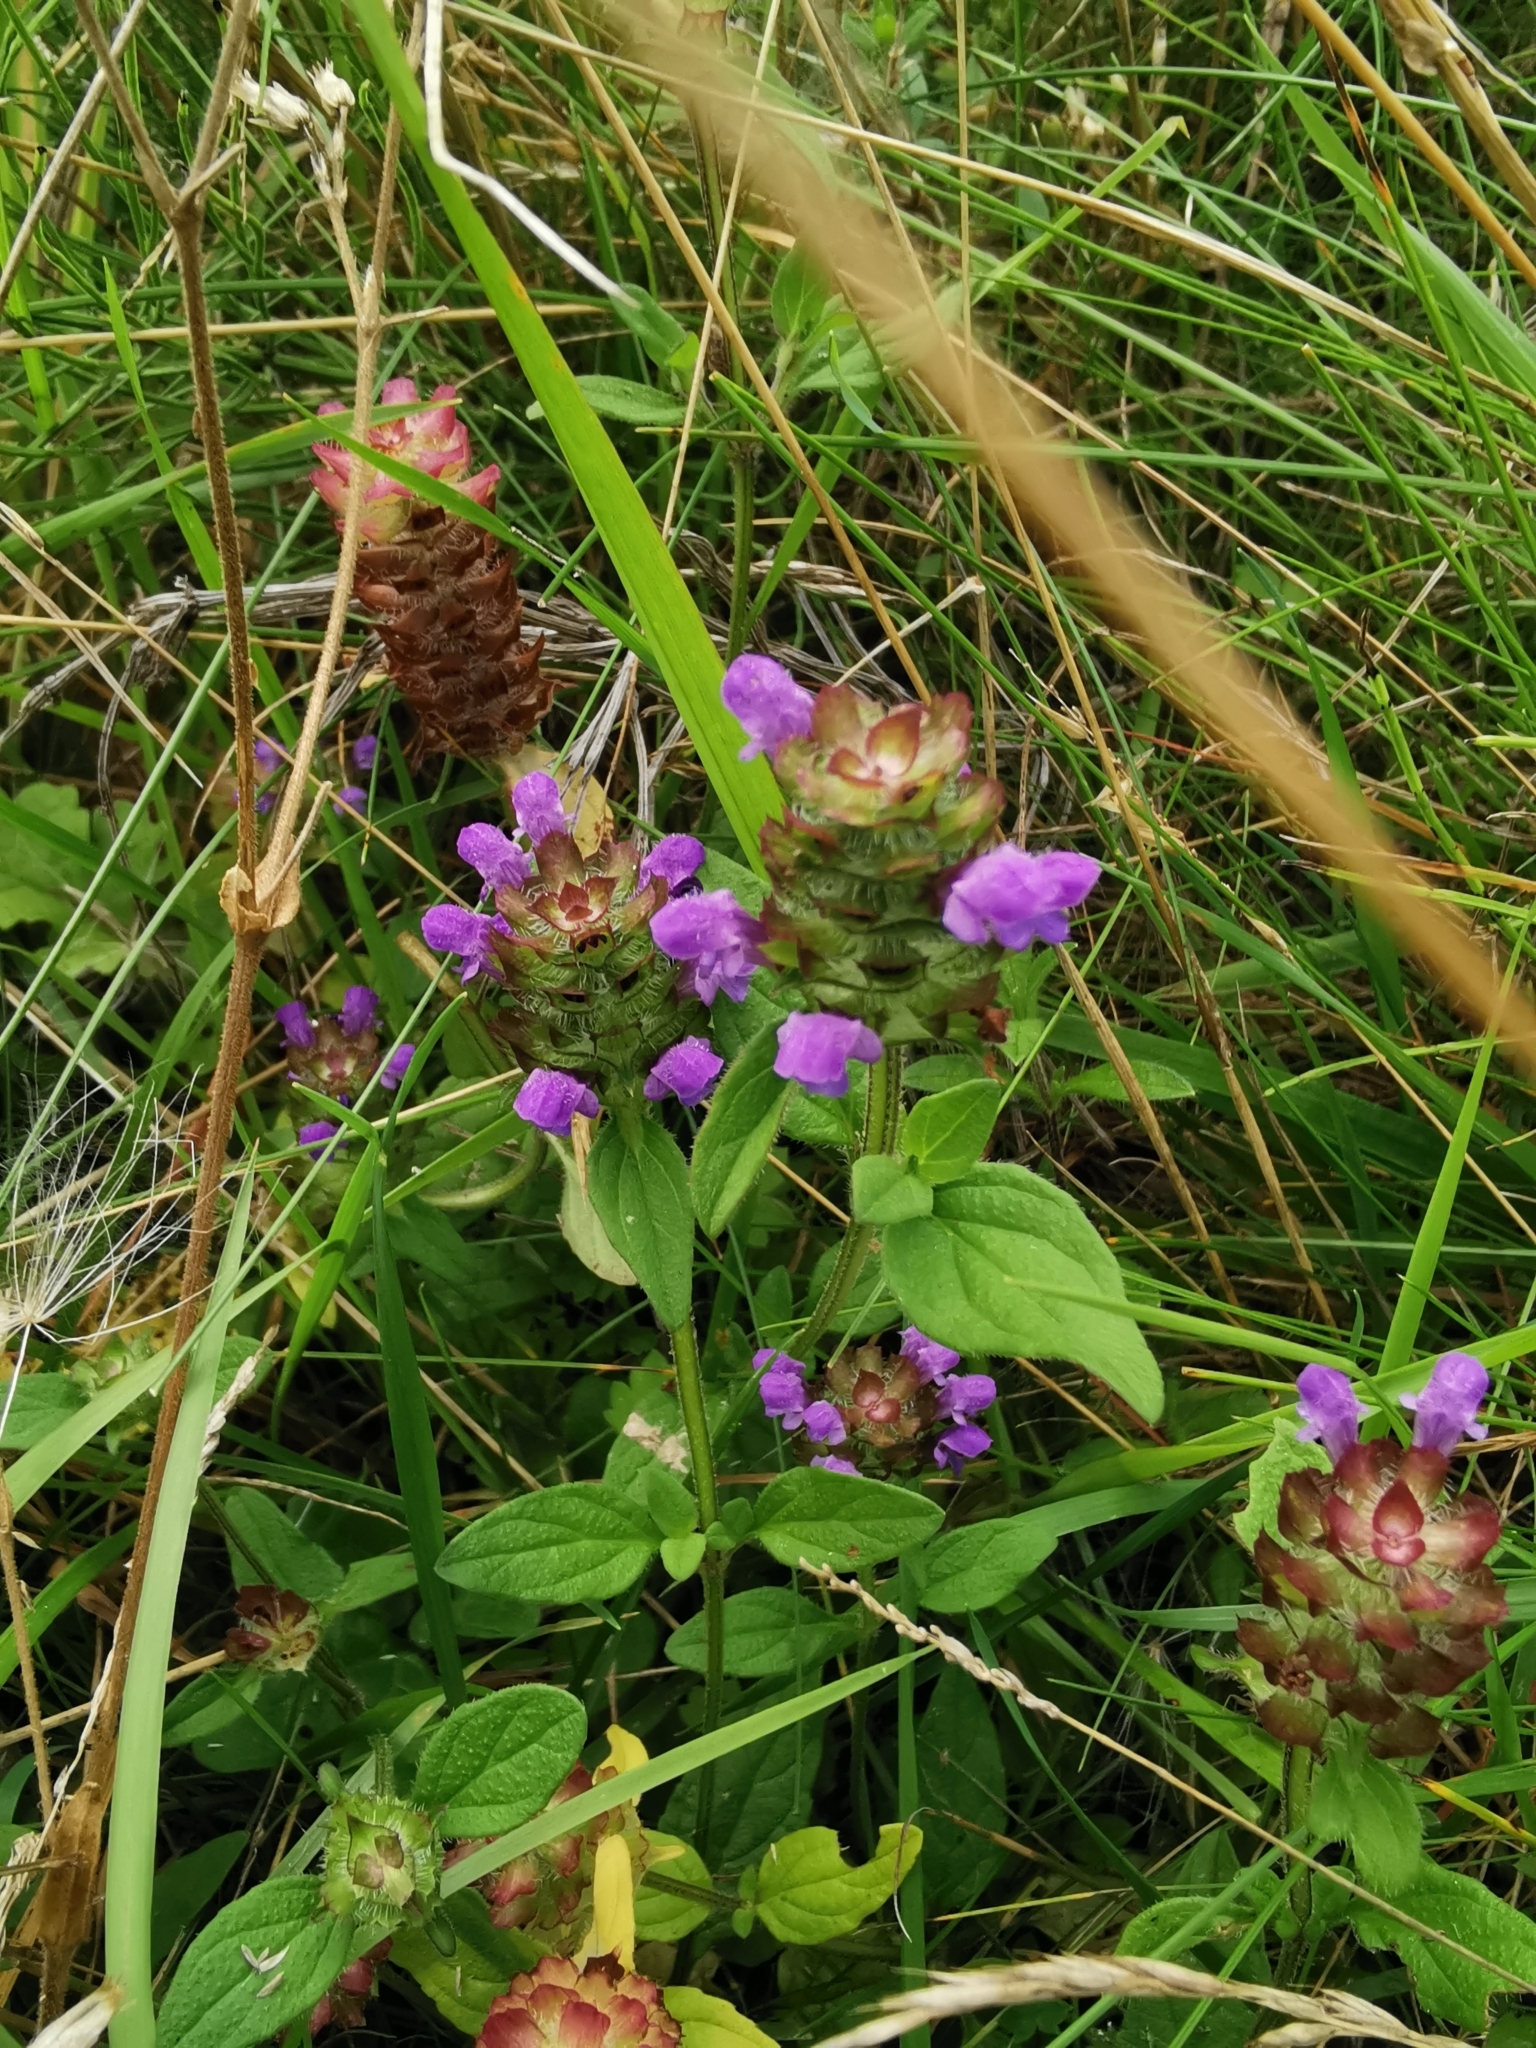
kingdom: Plantae
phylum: Tracheophyta
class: Magnoliopsida
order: Lamiales
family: Lamiaceae
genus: Prunella
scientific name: Prunella vulgaris
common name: Heal-all
